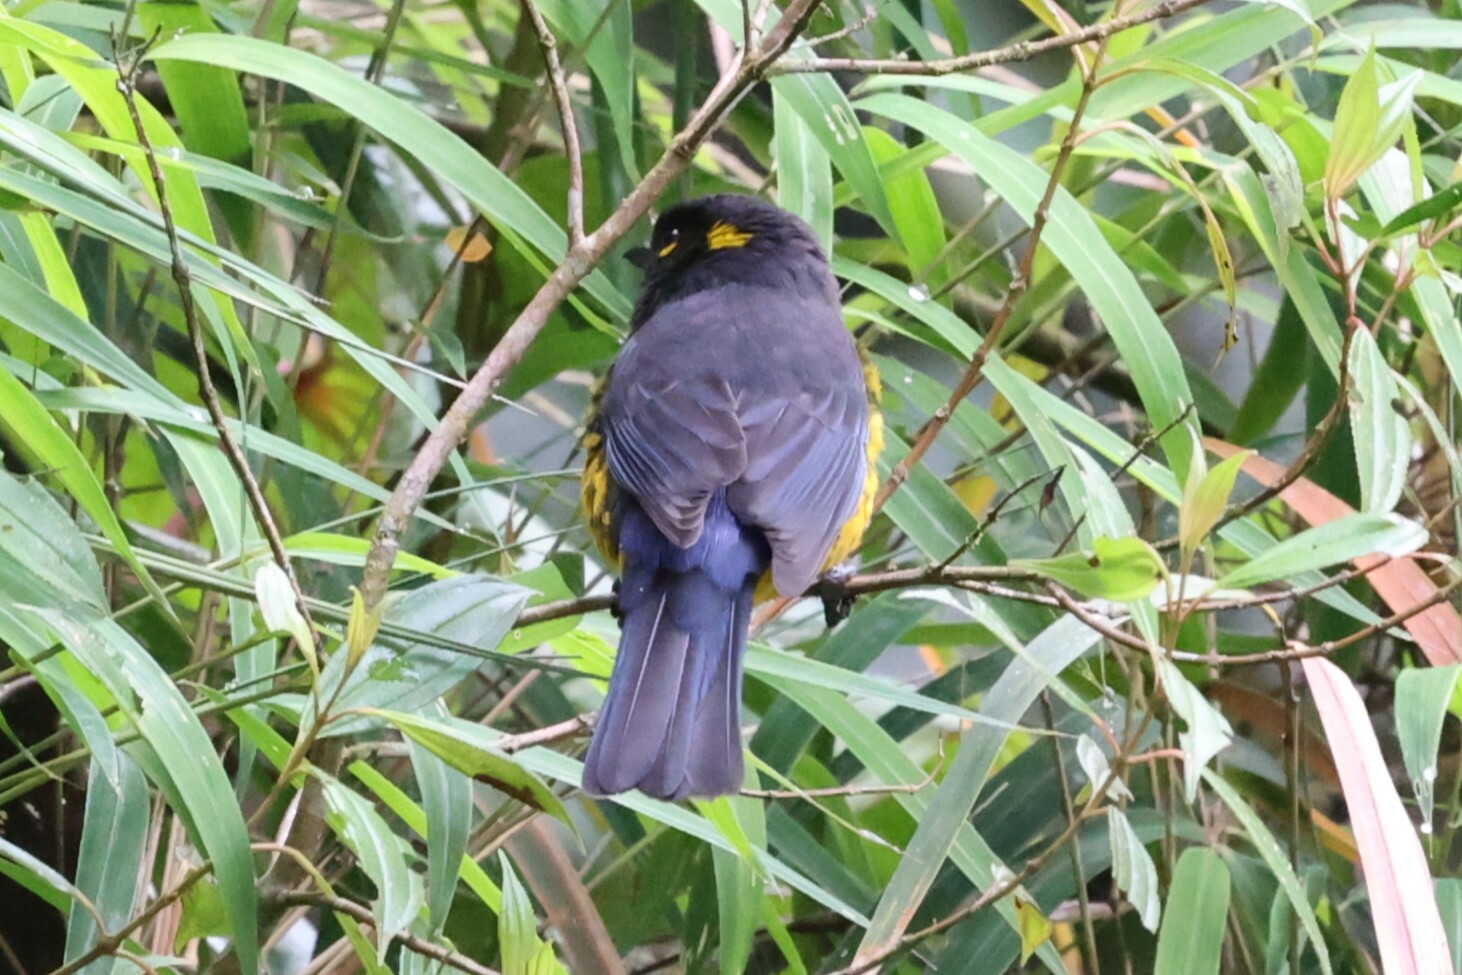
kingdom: Animalia
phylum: Chordata
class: Aves
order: Passeriformes
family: Thraupidae
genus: Anisognathus
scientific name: Anisognathus lacrymosus
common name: Lacrimose mountain-tanager
